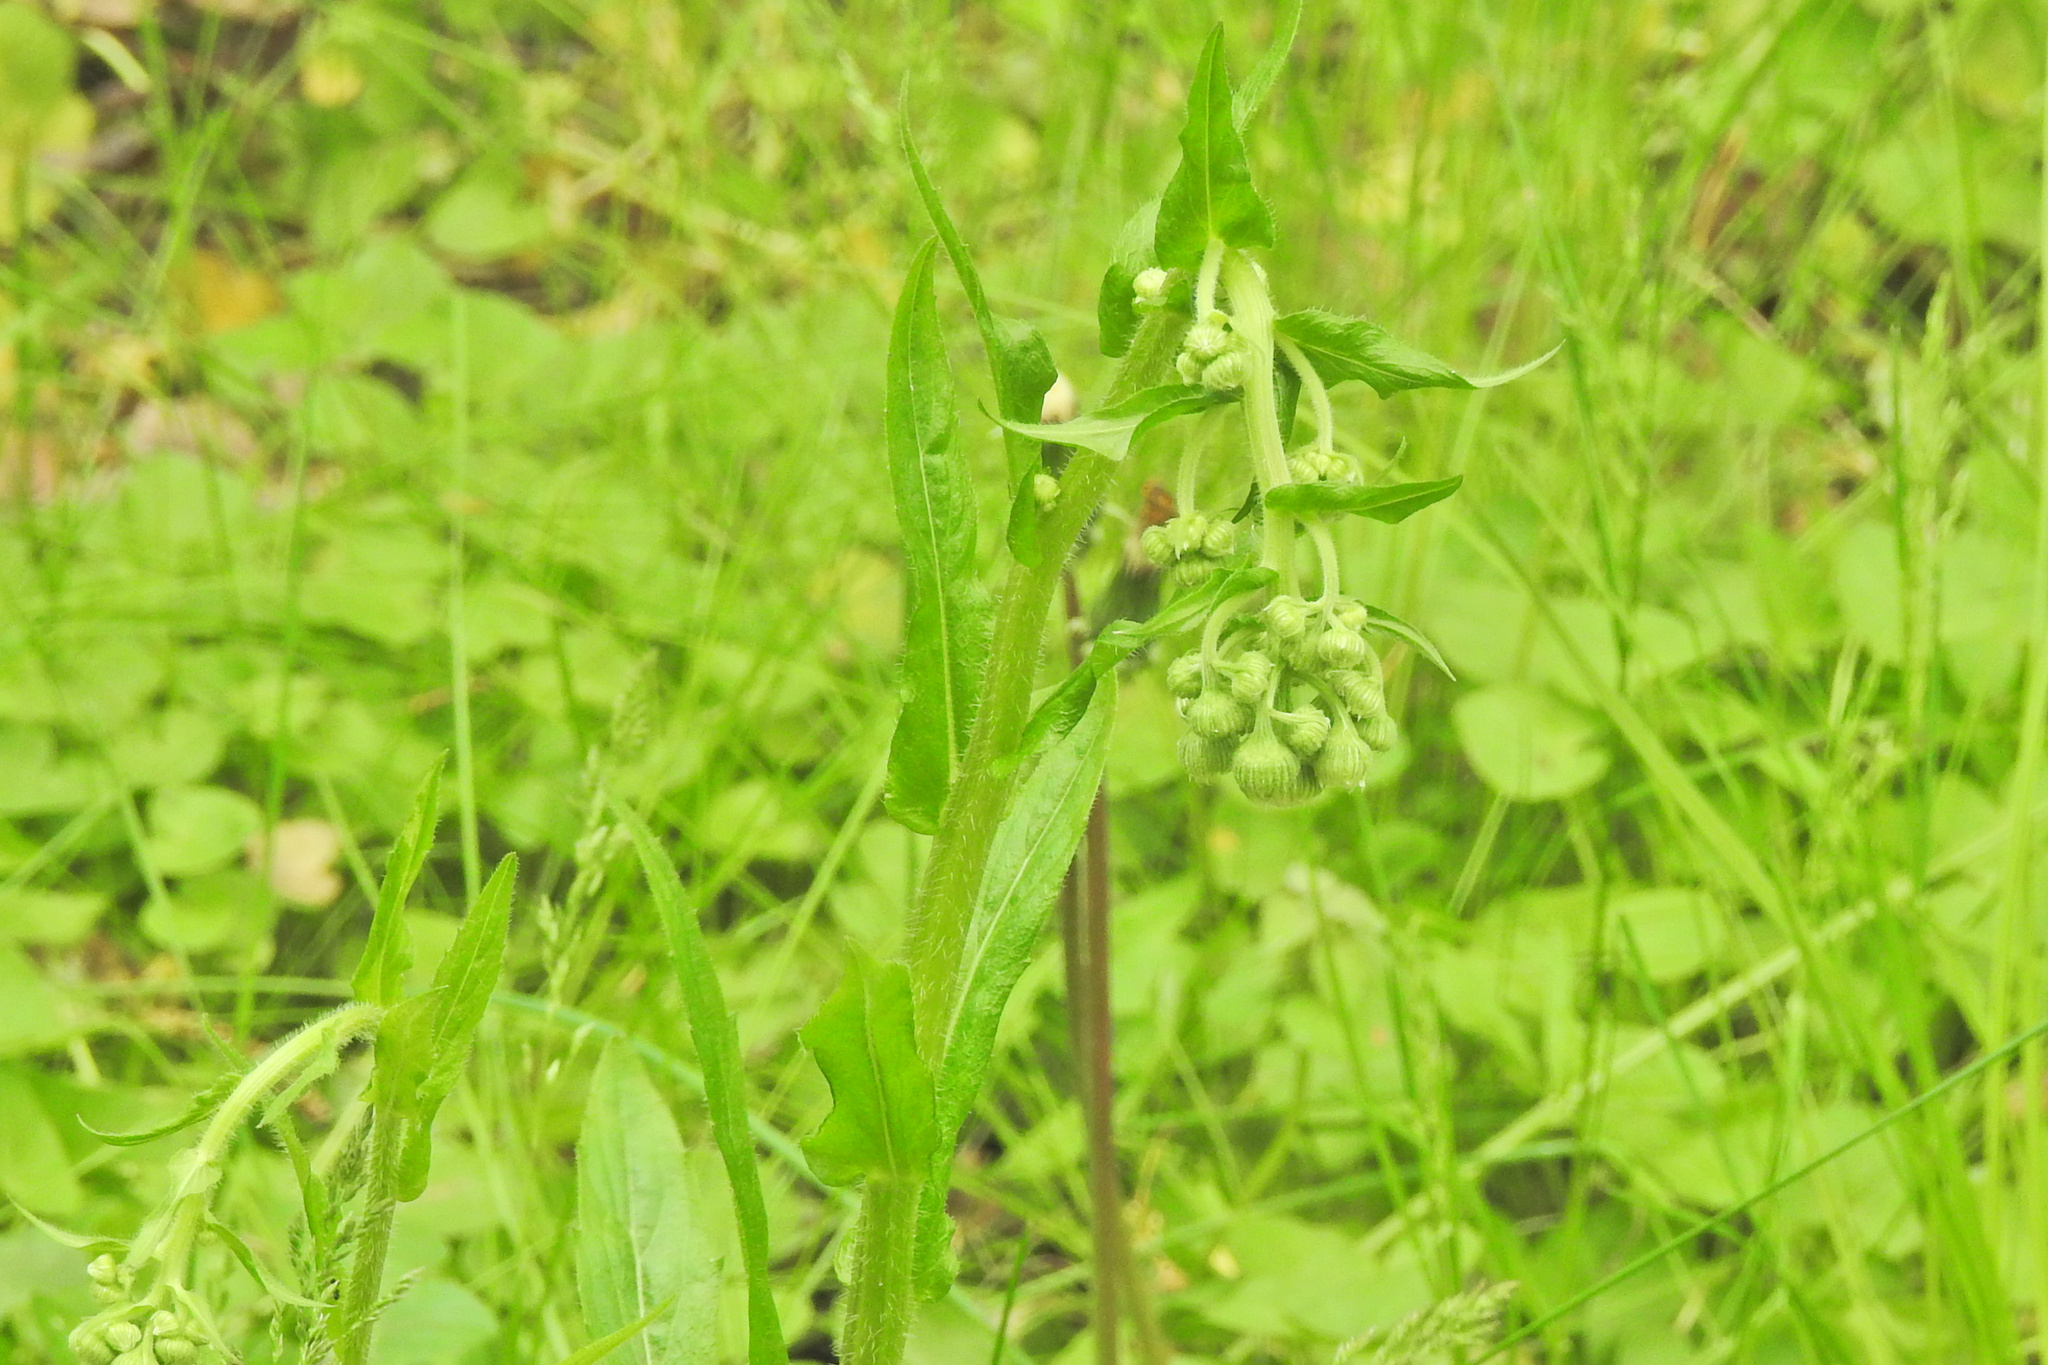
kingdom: Plantae
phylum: Tracheophyta
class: Magnoliopsida
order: Asterales
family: Asteraceae
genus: Erigeron
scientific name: Erigeron philadelphicus
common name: Robin's-plantain
